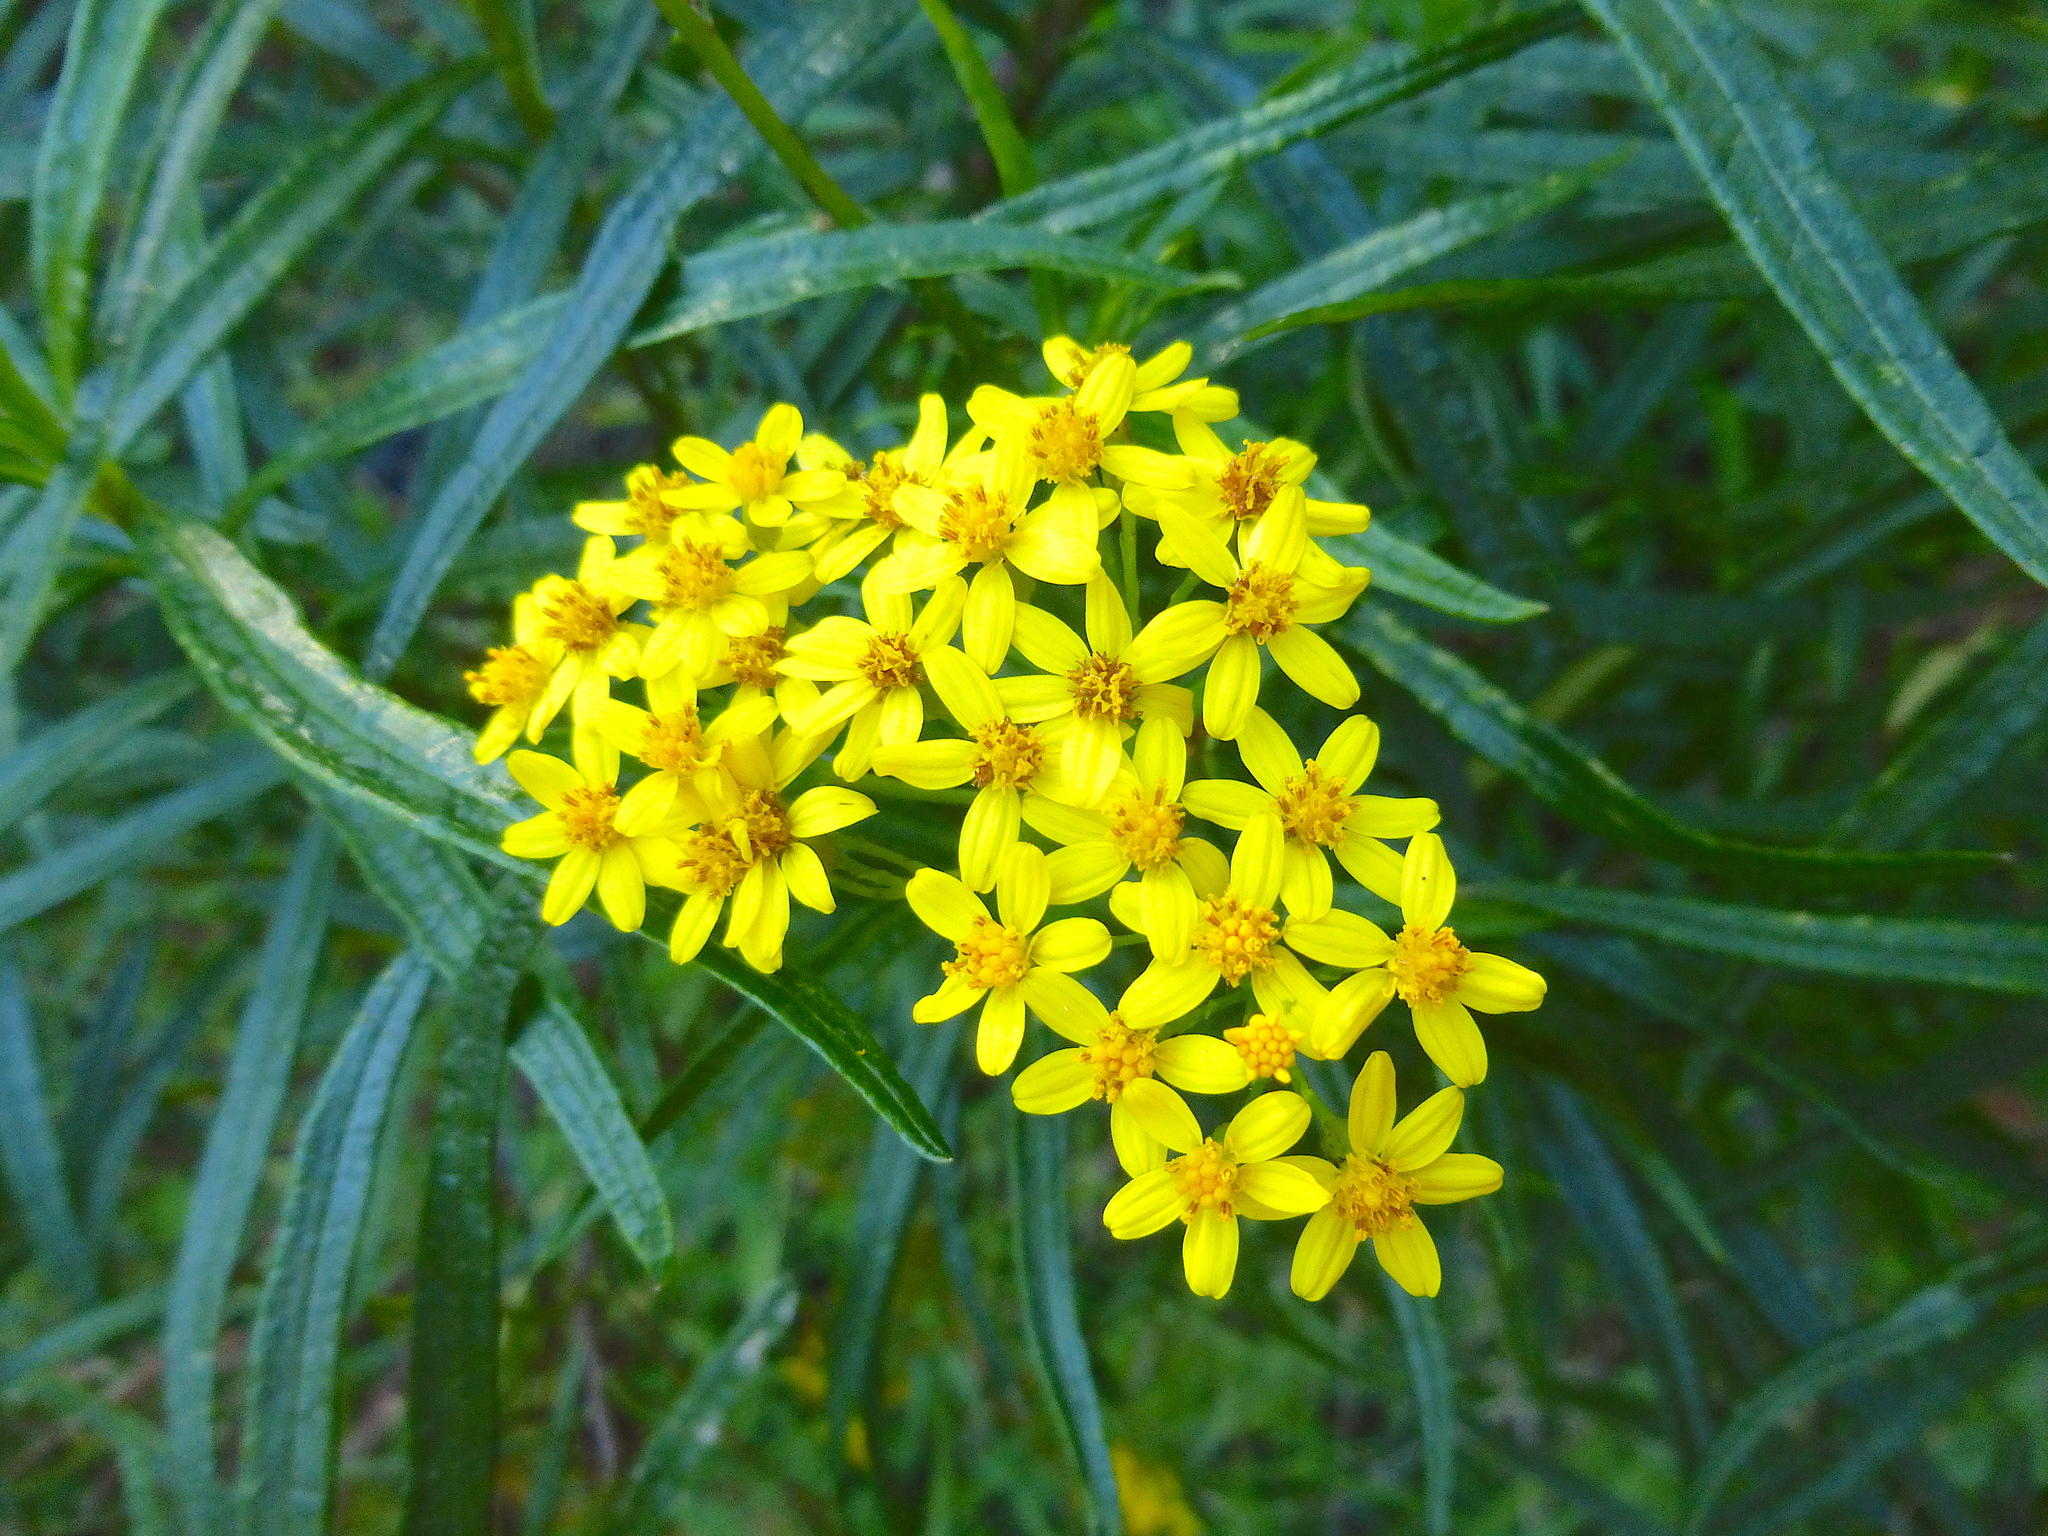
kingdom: Plantae
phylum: Tracheophyta
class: Magnoliopsida
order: Asterales
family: Asteraceae
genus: Senecio
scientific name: Senecio linearifolius
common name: Fireweed groundsel
